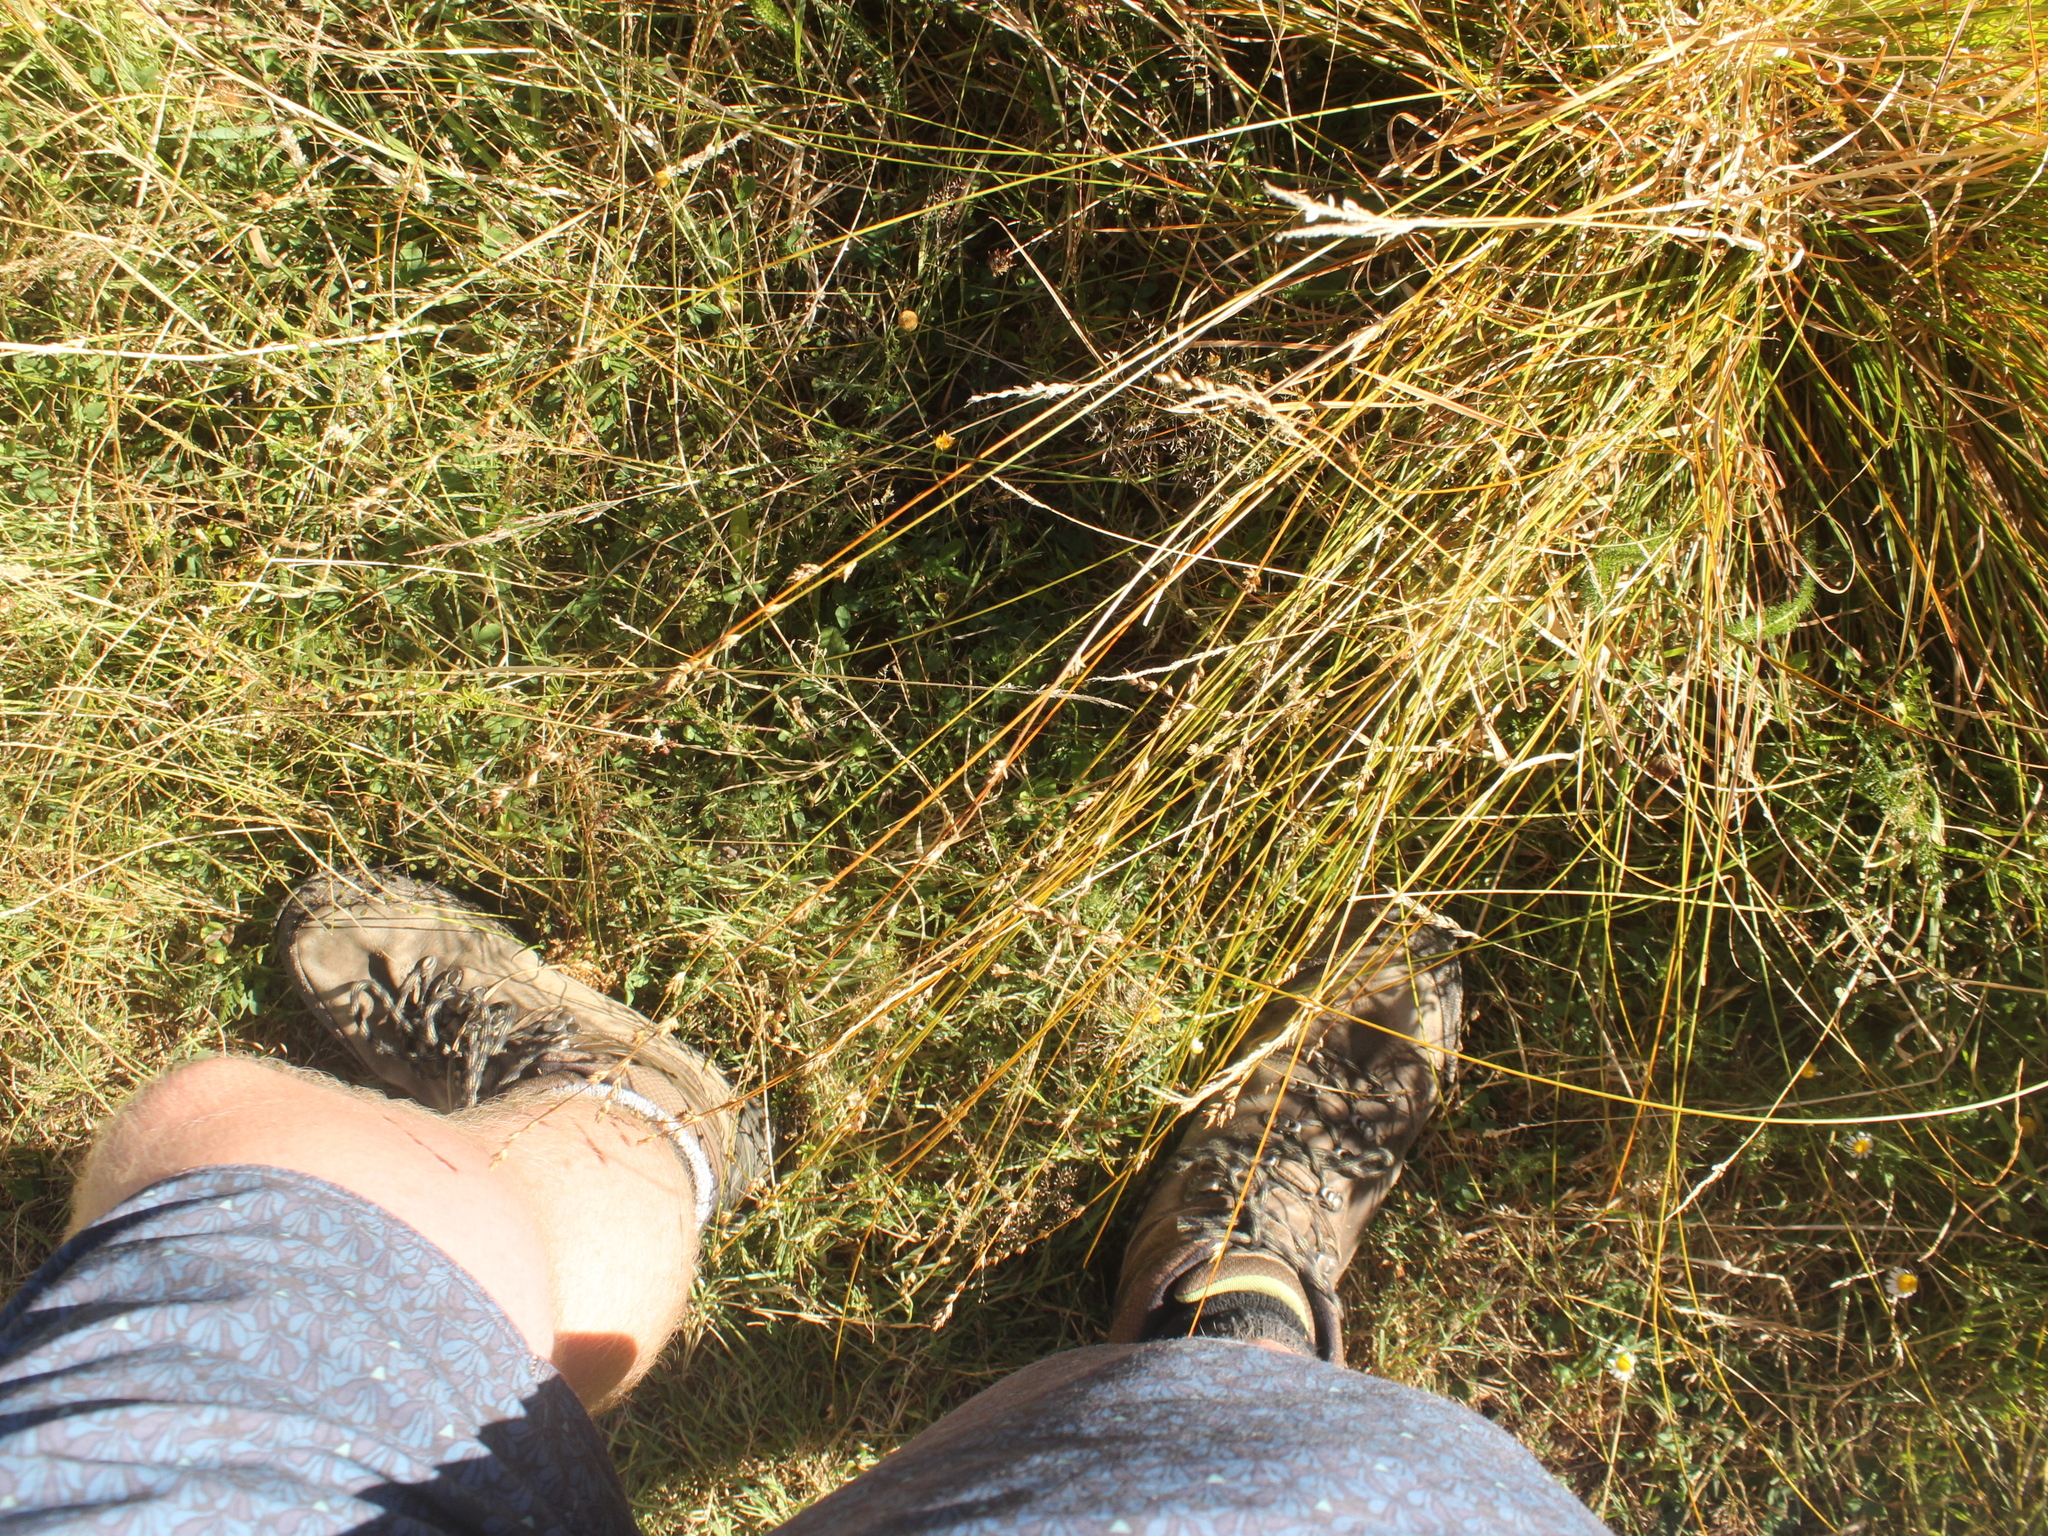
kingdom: Plantae
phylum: Tracheophyta
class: Liliopsida
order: Poales
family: Cyperaceae
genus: Carex
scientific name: Carex divulsa
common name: Grassland sedge
